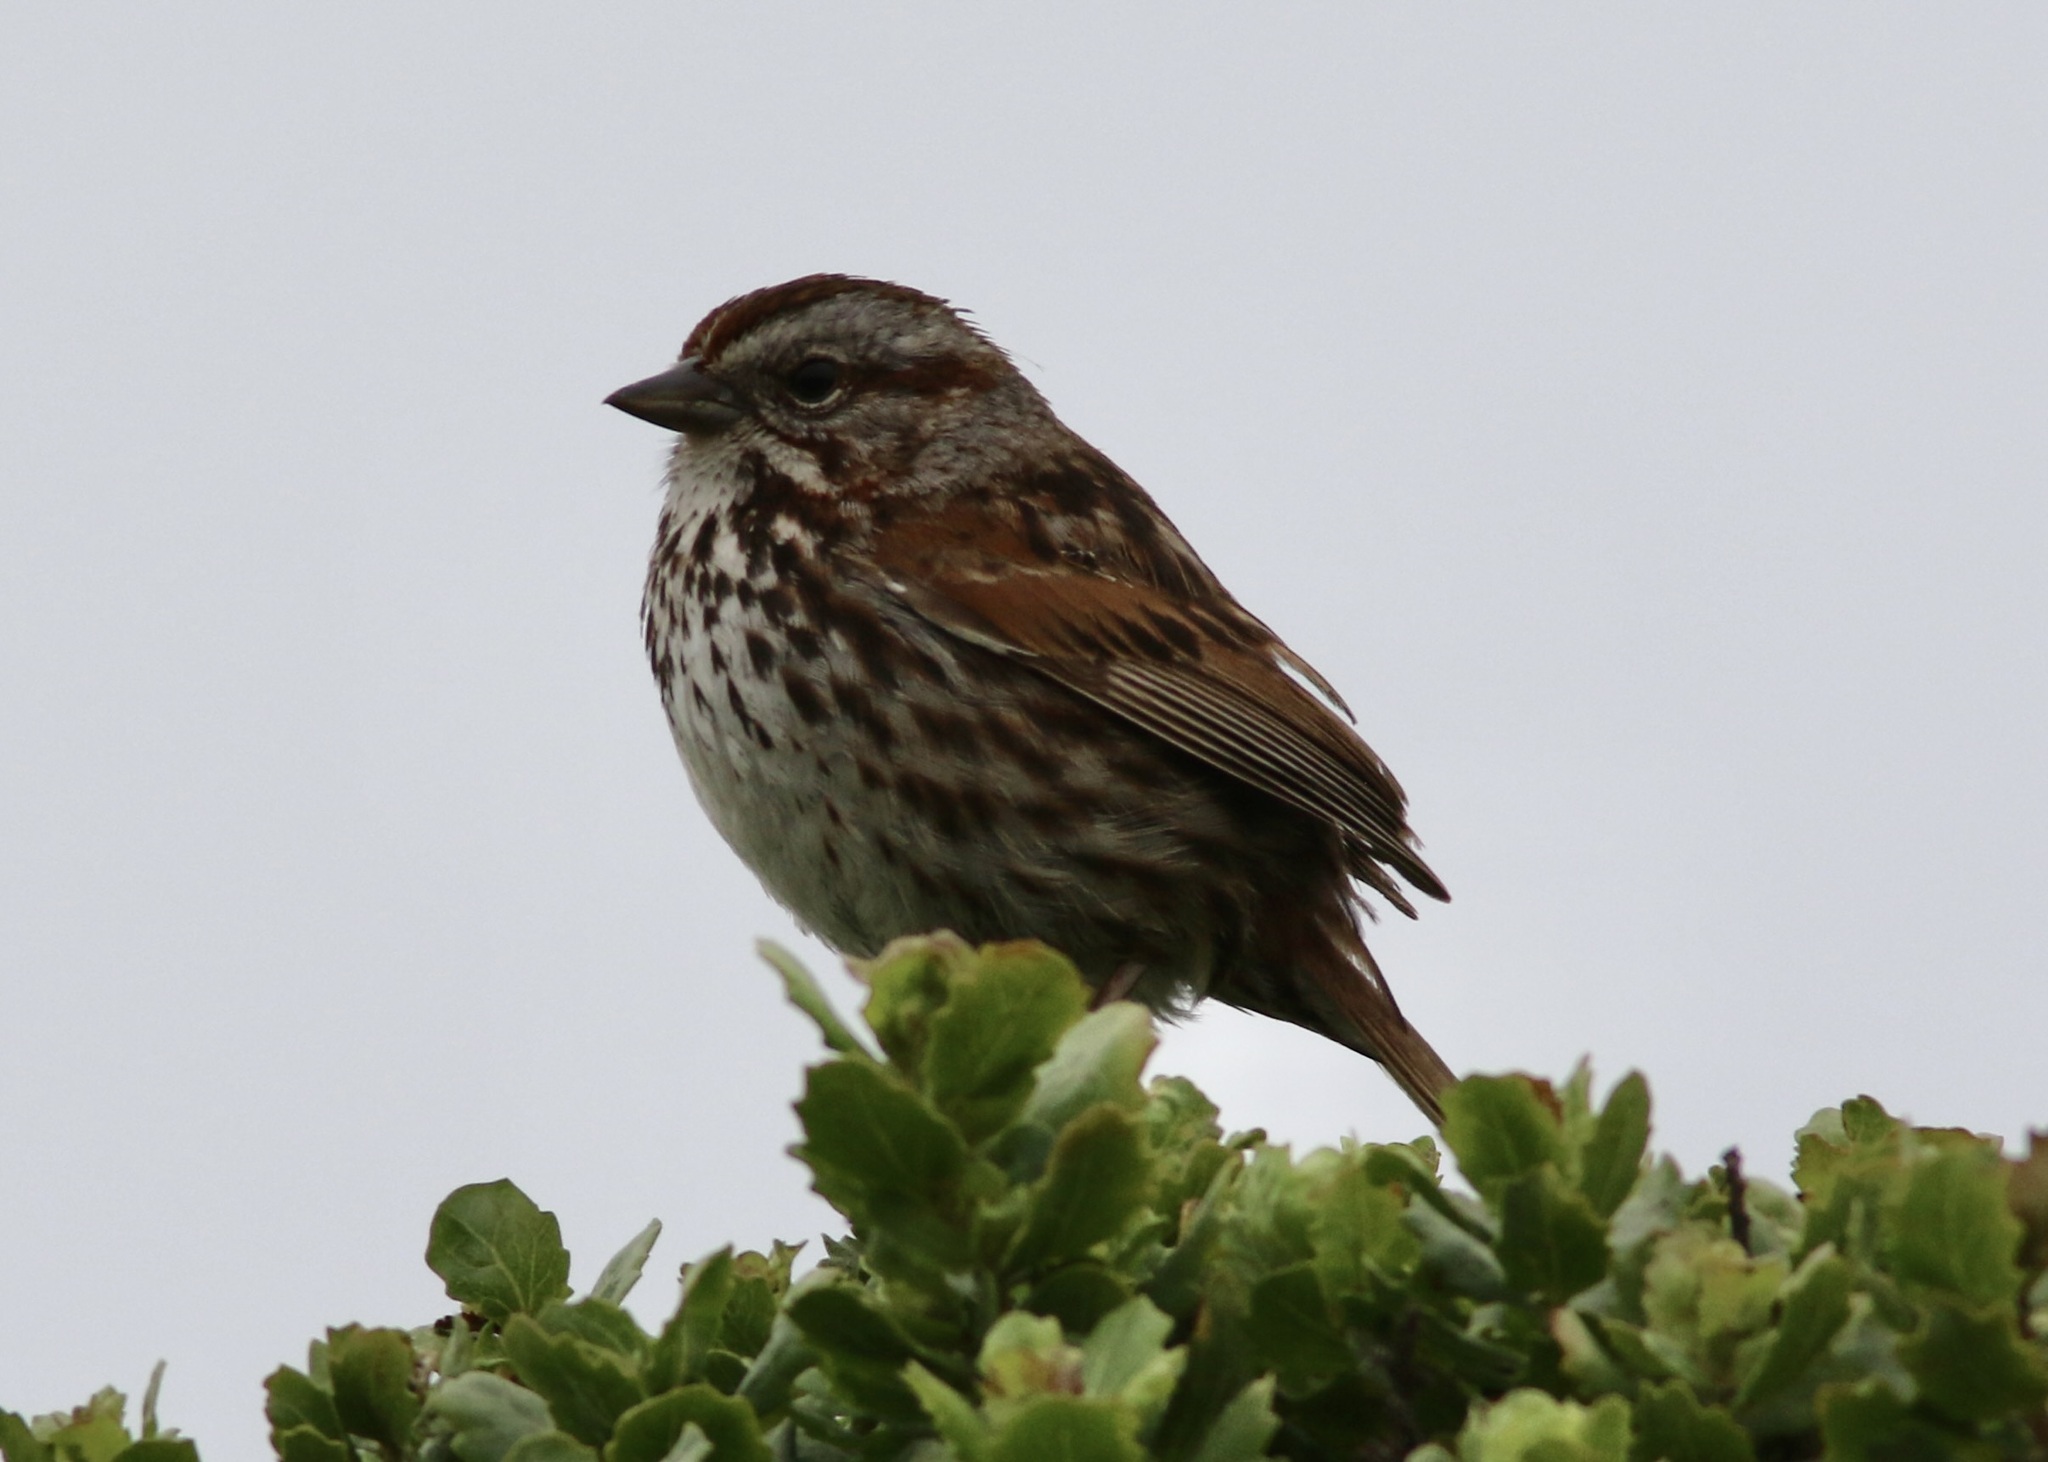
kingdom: Animalia
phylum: Chordata
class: Aves
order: Passeriformes
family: Passerellidae
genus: Melospiza
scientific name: Melospiza melodia
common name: Song sparrow
